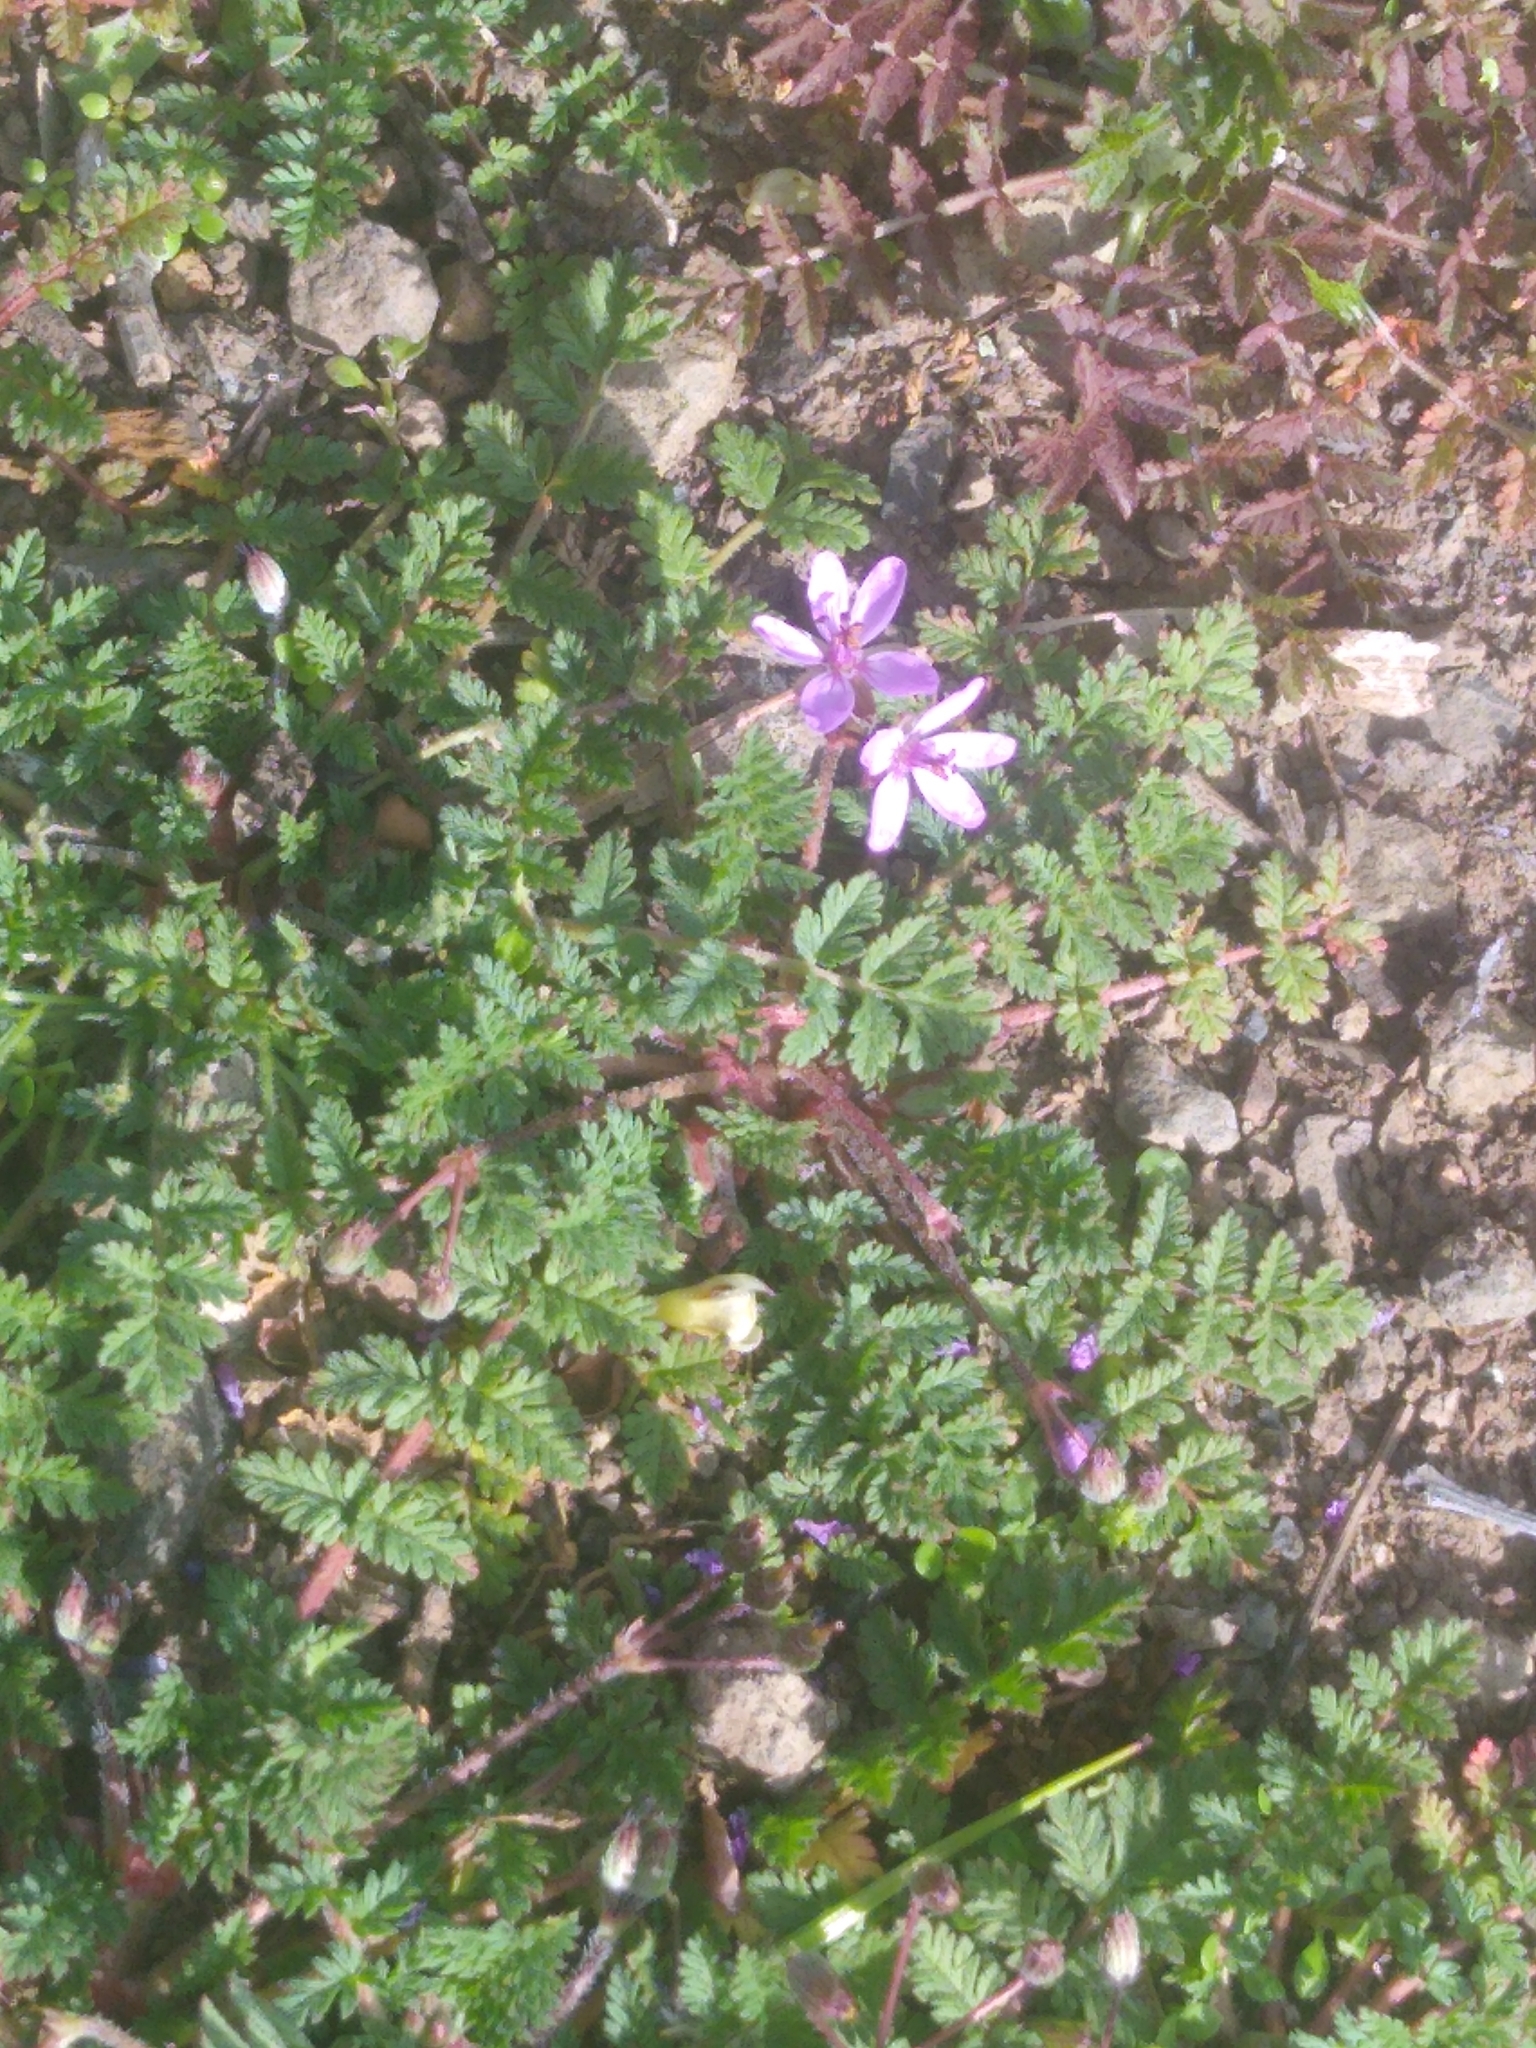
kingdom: Plantae
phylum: Tracheophyta
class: Magnoliopsida
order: Geraniales
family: Geraniaceae
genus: Erodium
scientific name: Erodium cicutarium
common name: Common stork's-bill
